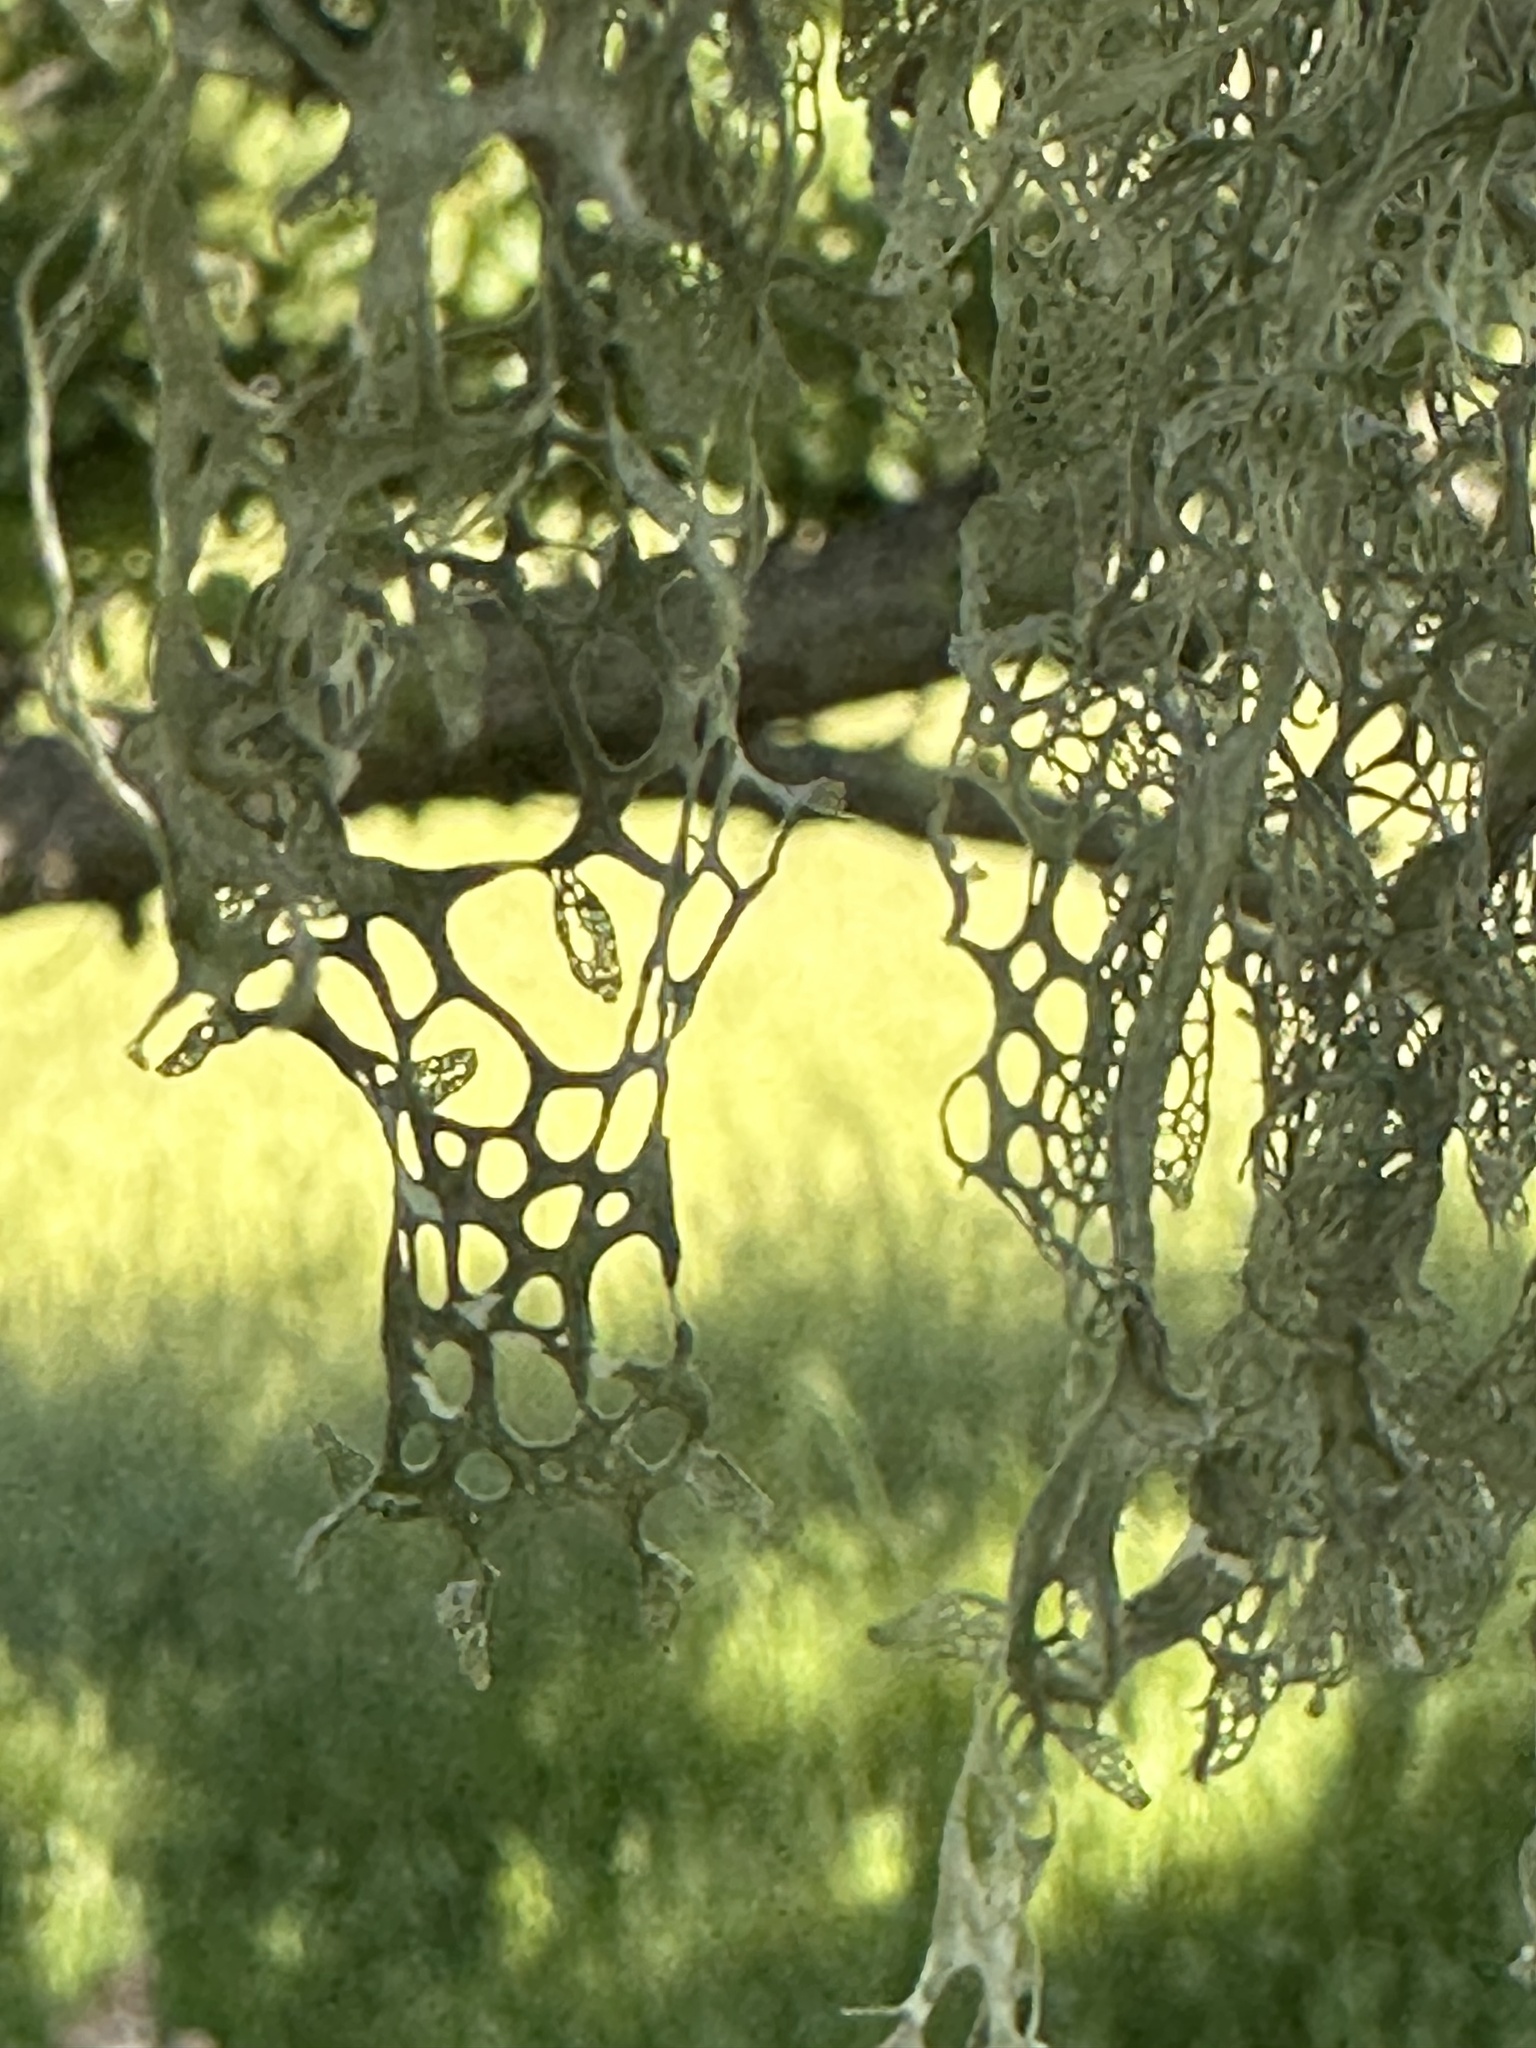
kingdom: Fungi
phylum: Ascomycota
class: Lecanoromycetes
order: Lecanorales
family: Ramalinaceae
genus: Ramalina
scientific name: Ramalina menziesii
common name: Lace lichen
